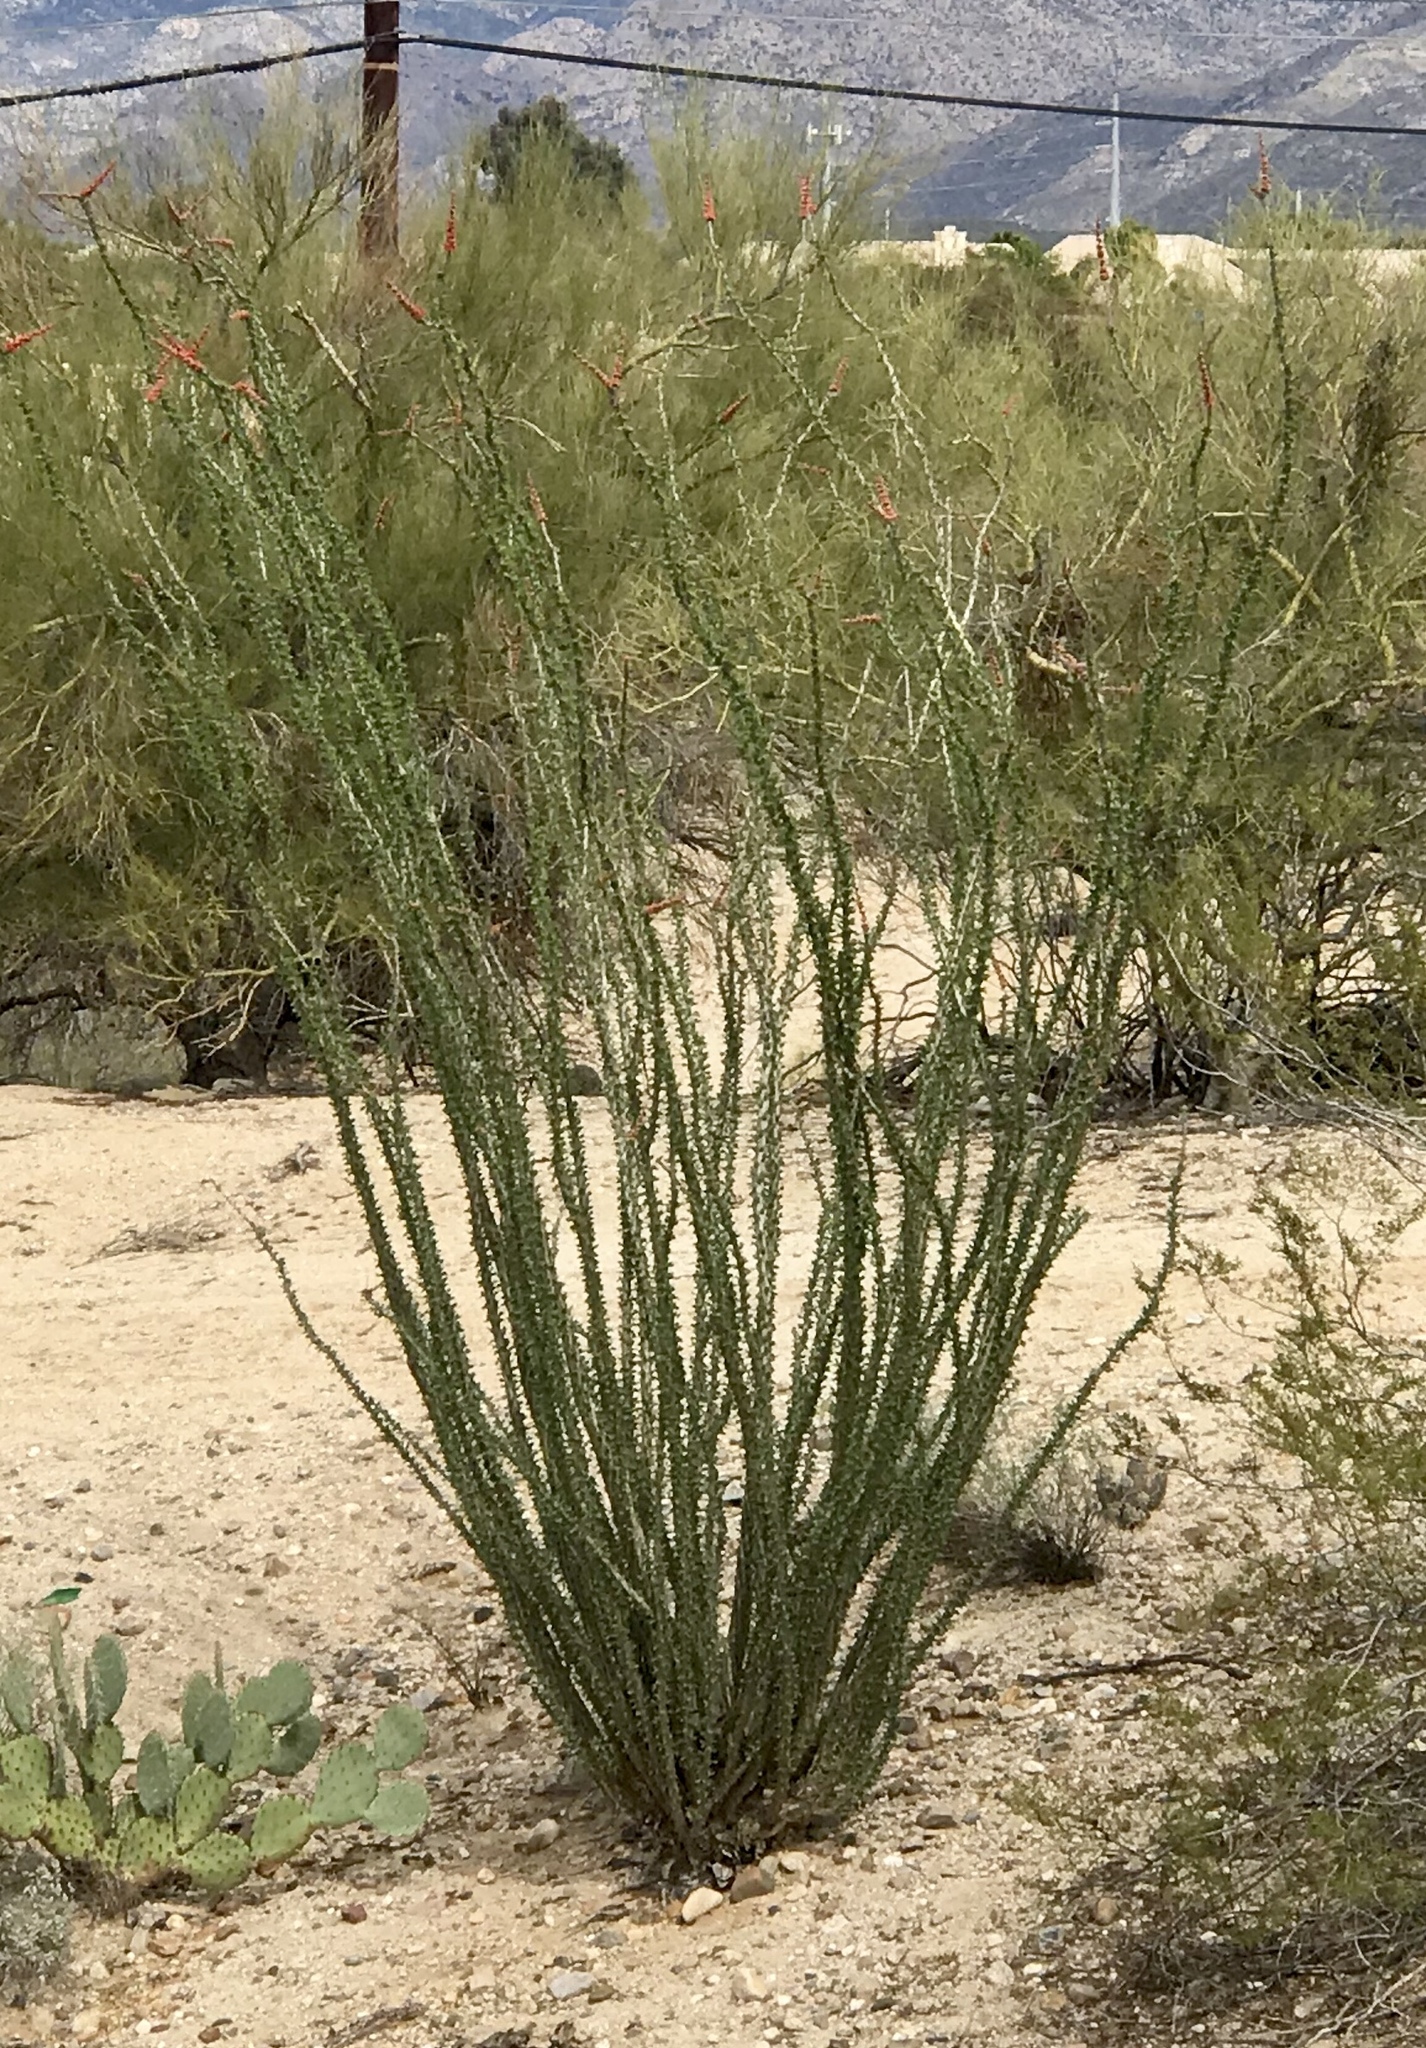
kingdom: Plantae
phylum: Tracheophyta
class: Magnoliopsida
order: Ericales
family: Fouquieriaceae
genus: Fouquieria
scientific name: Fouquieria splendens
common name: Vine-cactus
